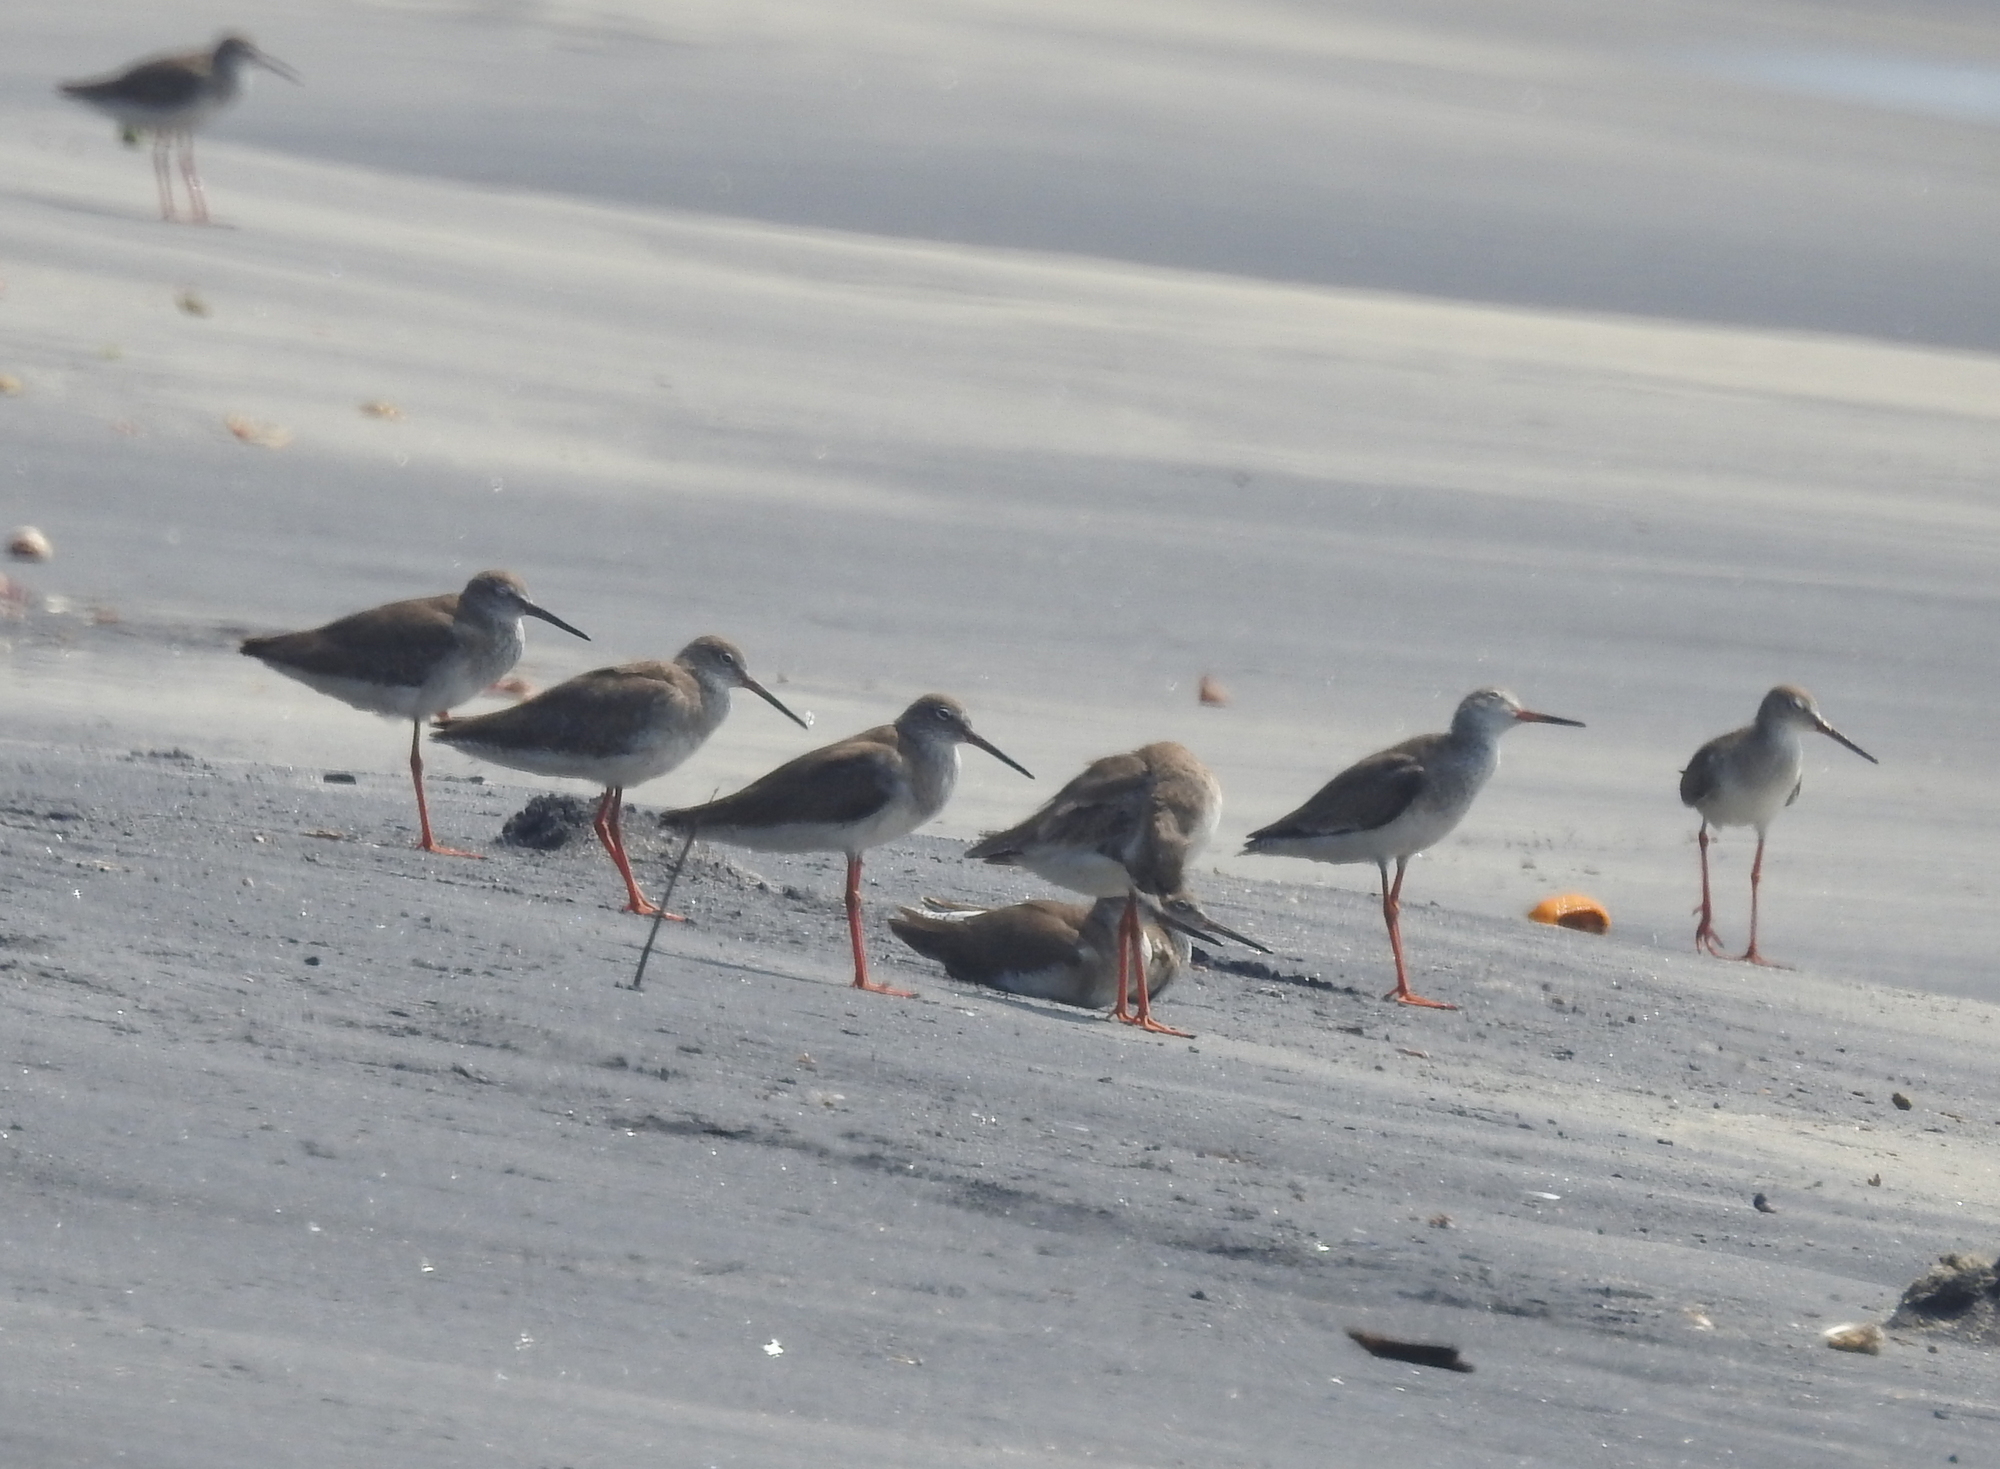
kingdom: Animalia
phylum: Chordata
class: Aves
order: Charadriiformes
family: Scolopacidae
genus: Tringa
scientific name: Tringa totanus
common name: Common redshank
